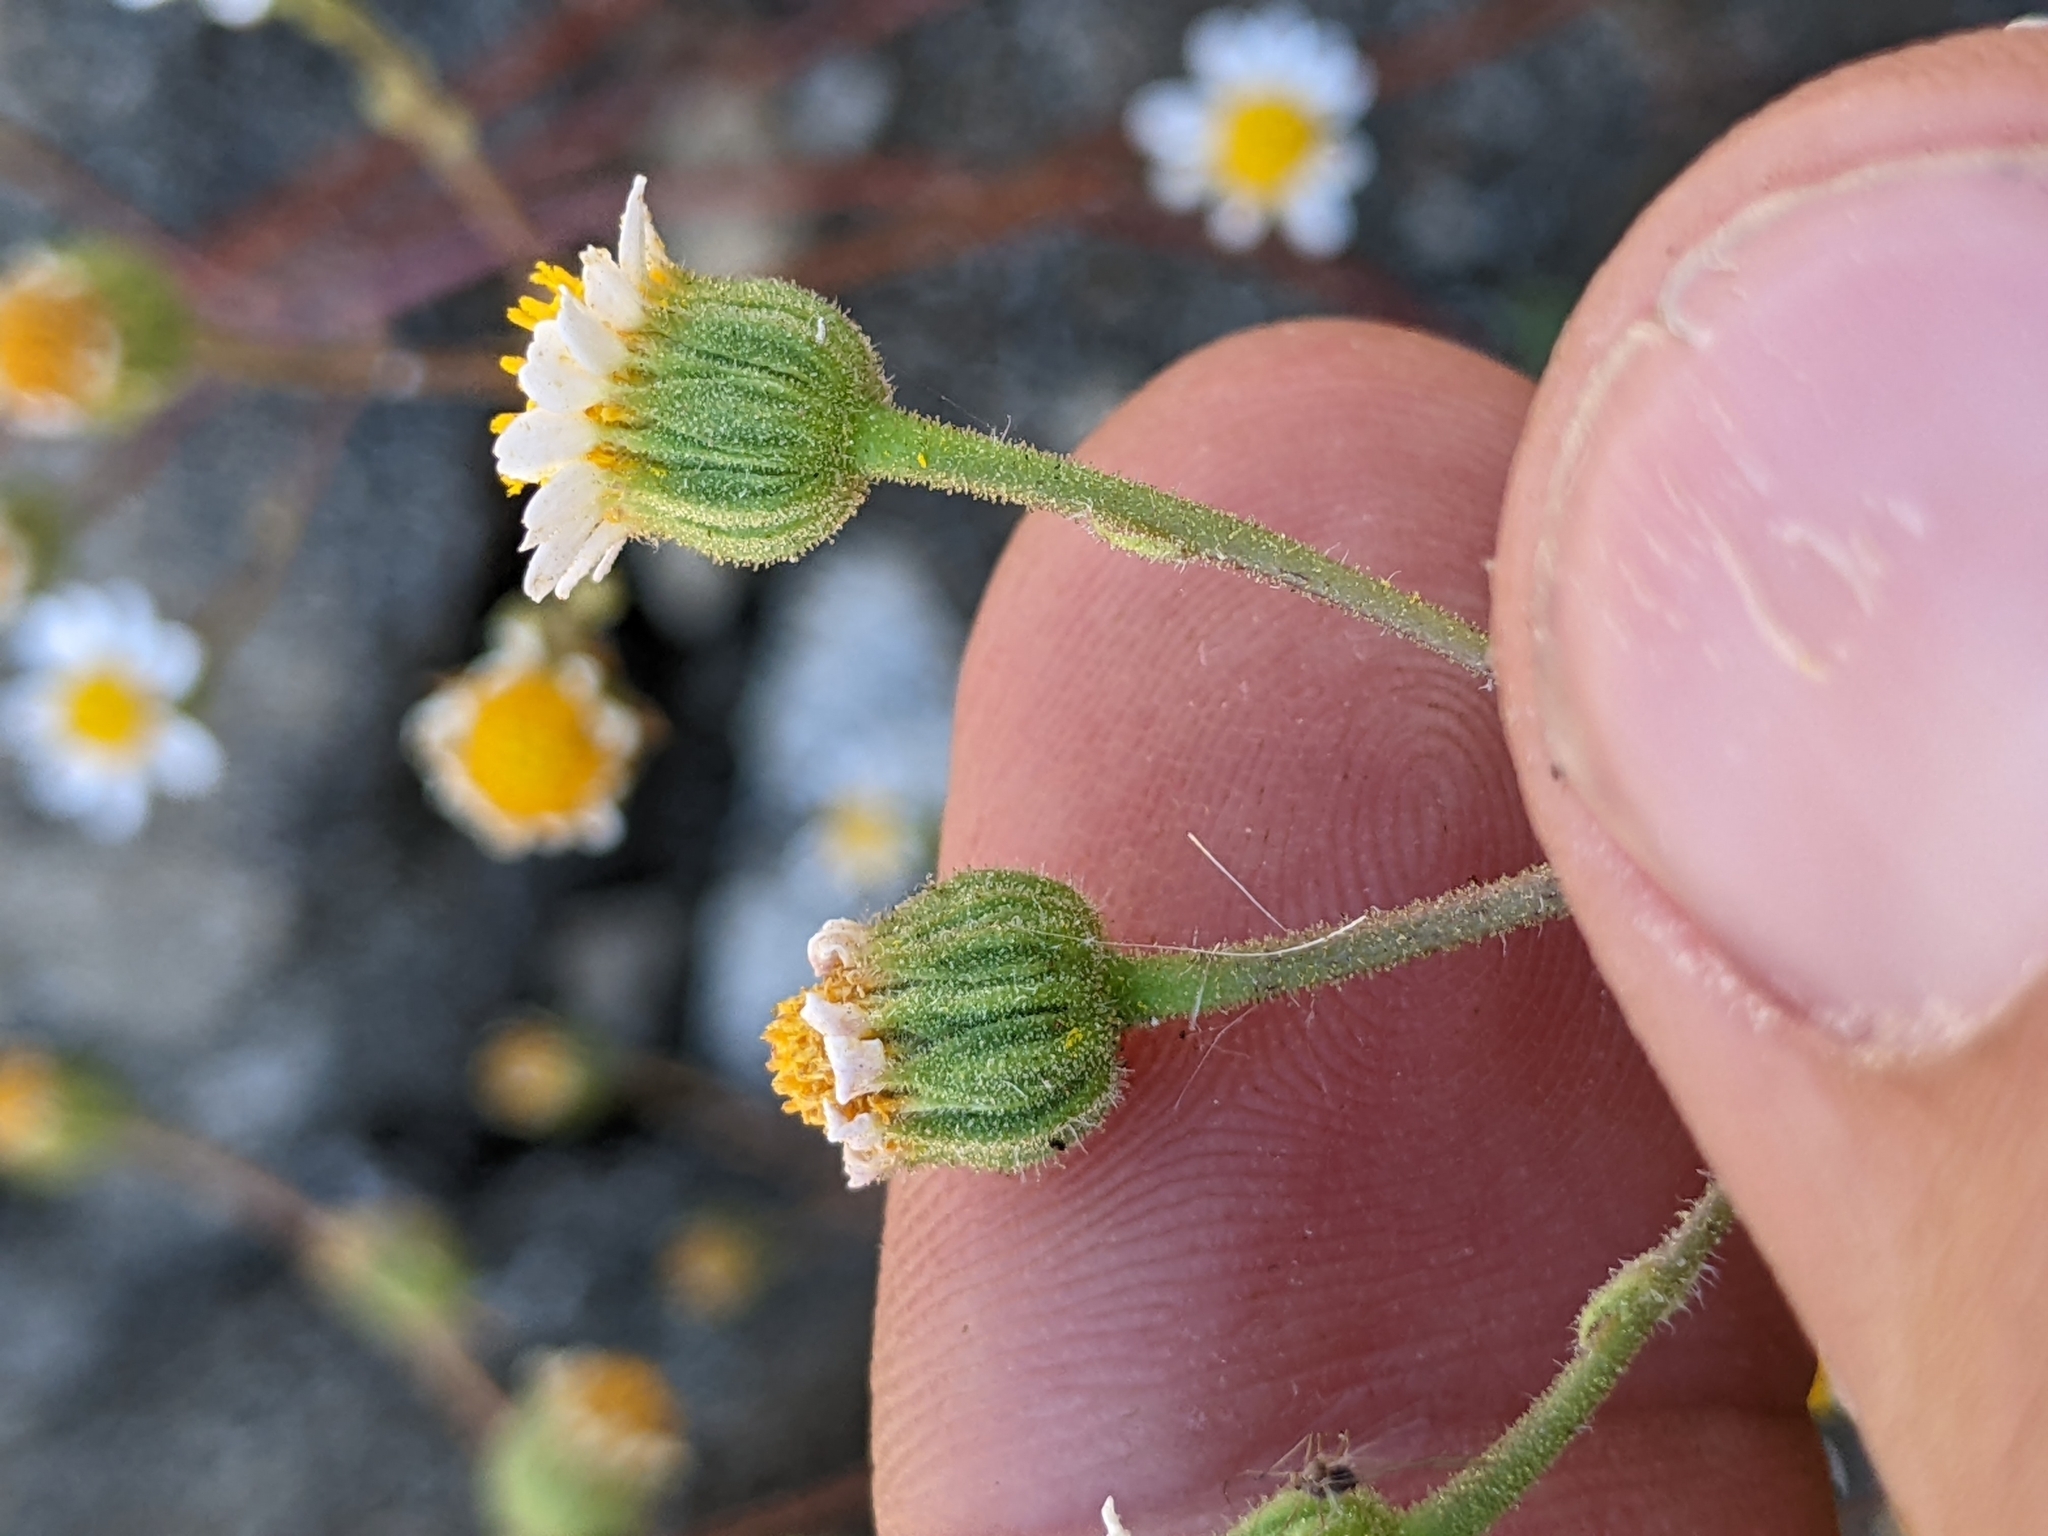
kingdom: Plantae
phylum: Tracheophyta
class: Magnoliopsida
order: Asterales
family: Asteraceae
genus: Laphamia
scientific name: Laphamia emoryi
